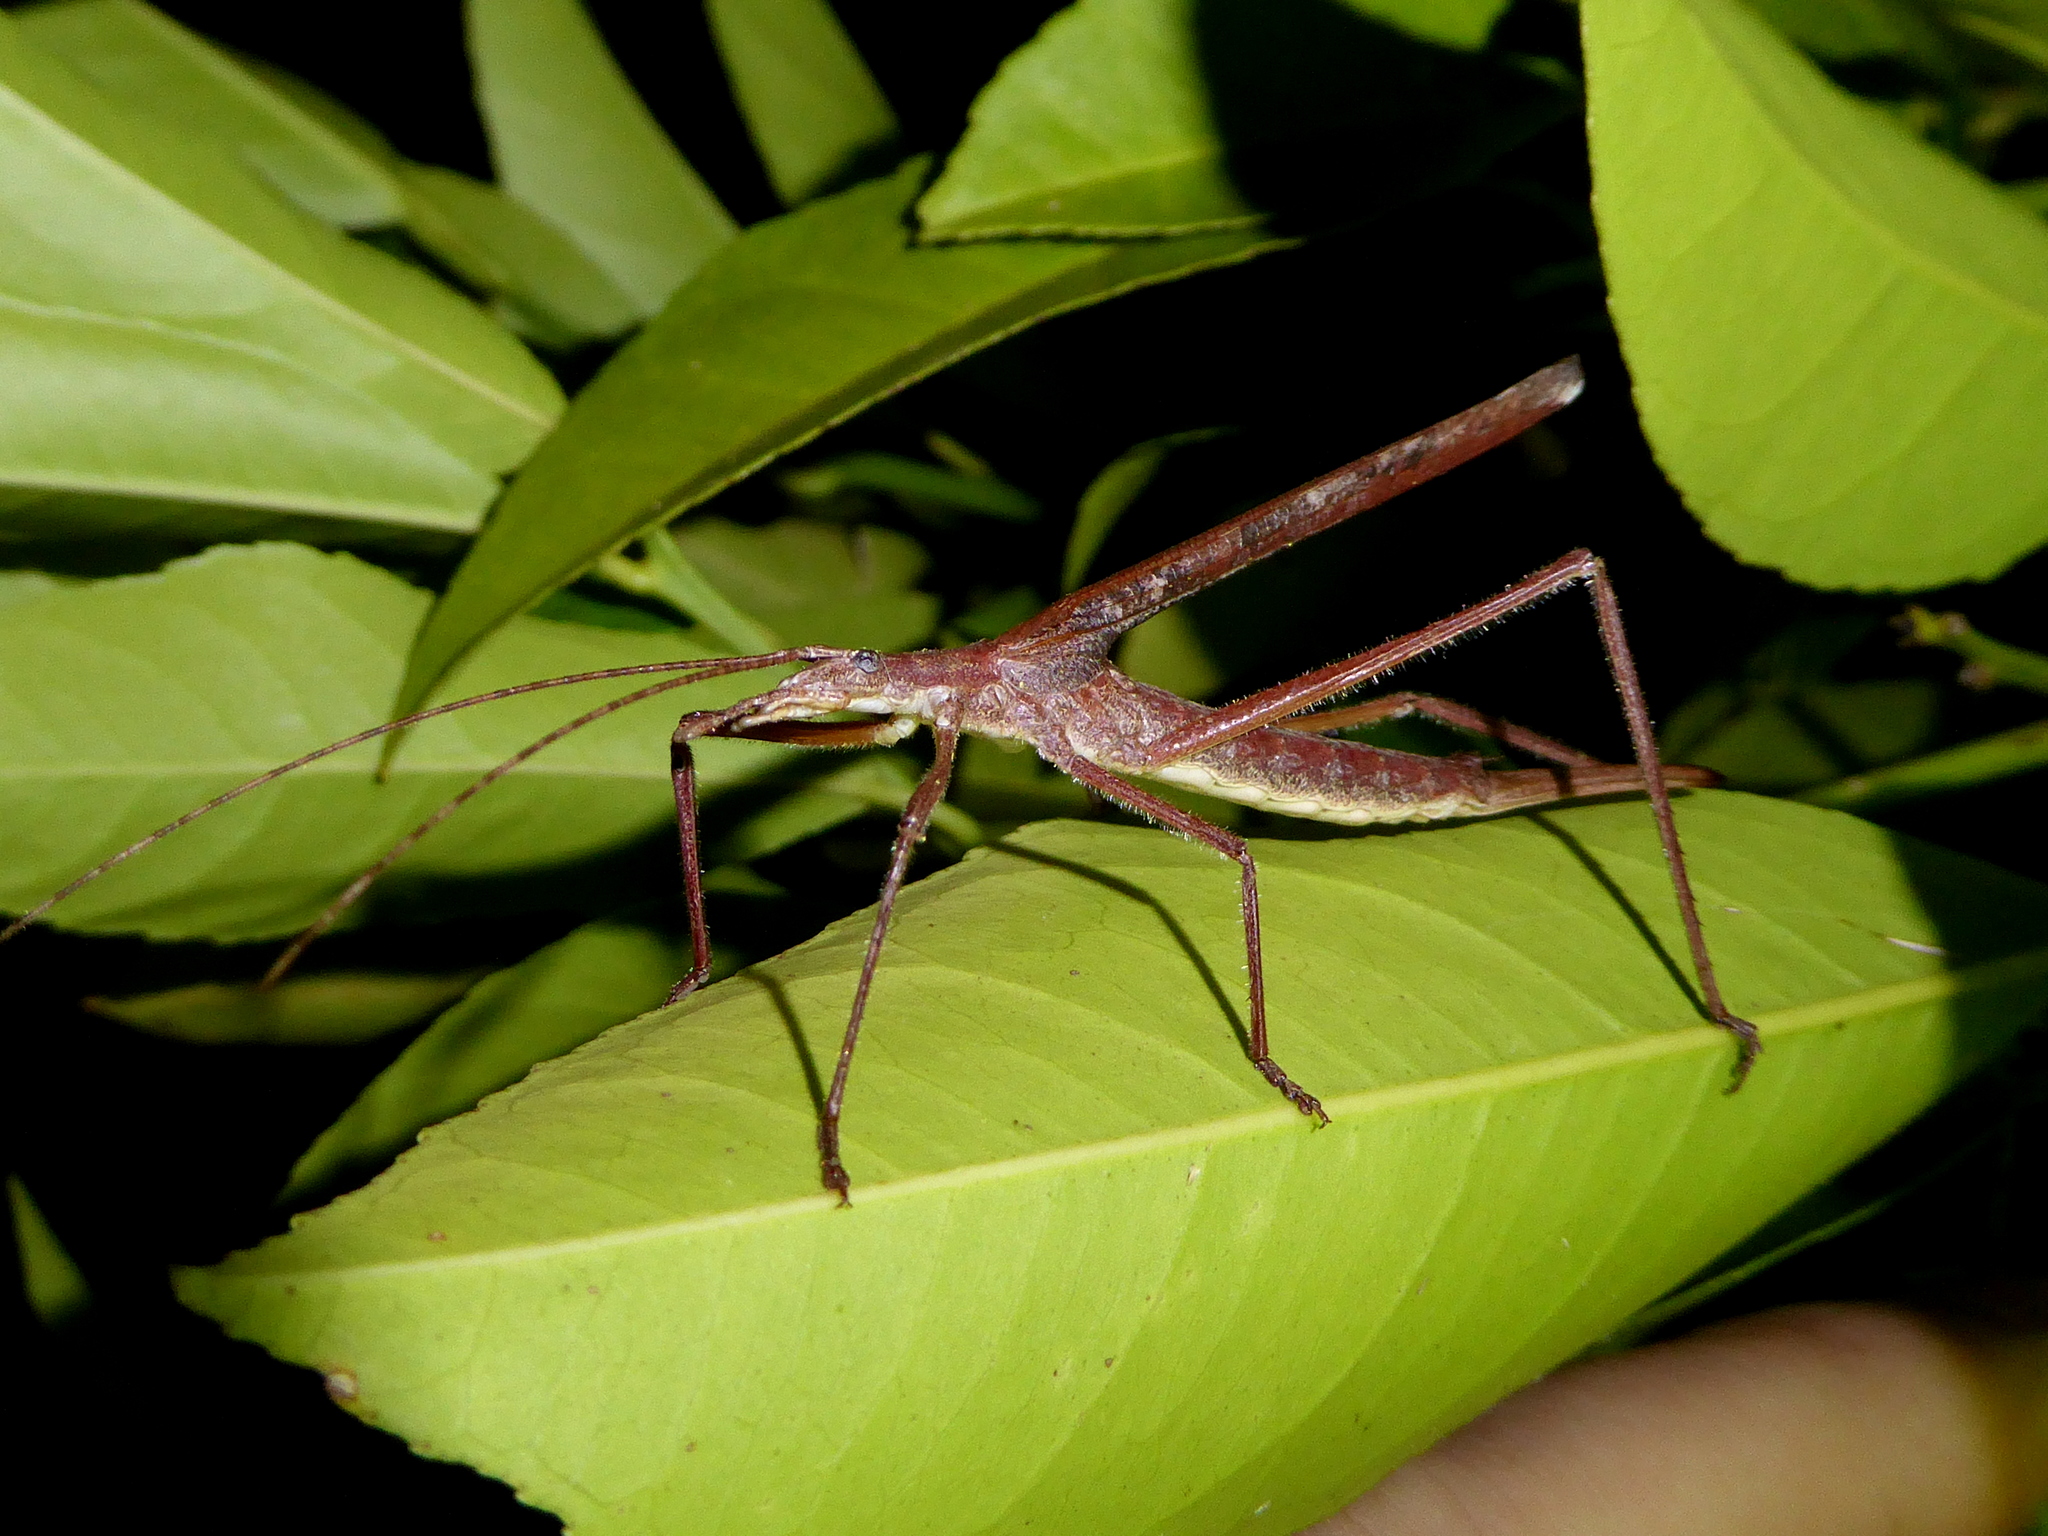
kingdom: Animalia
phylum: Arthropoda
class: Insecta
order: Orthoptera
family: Tettigoniidae
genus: Zaprochilus
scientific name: Zaprochilus australis
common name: Australian twig-mimicking katydid
